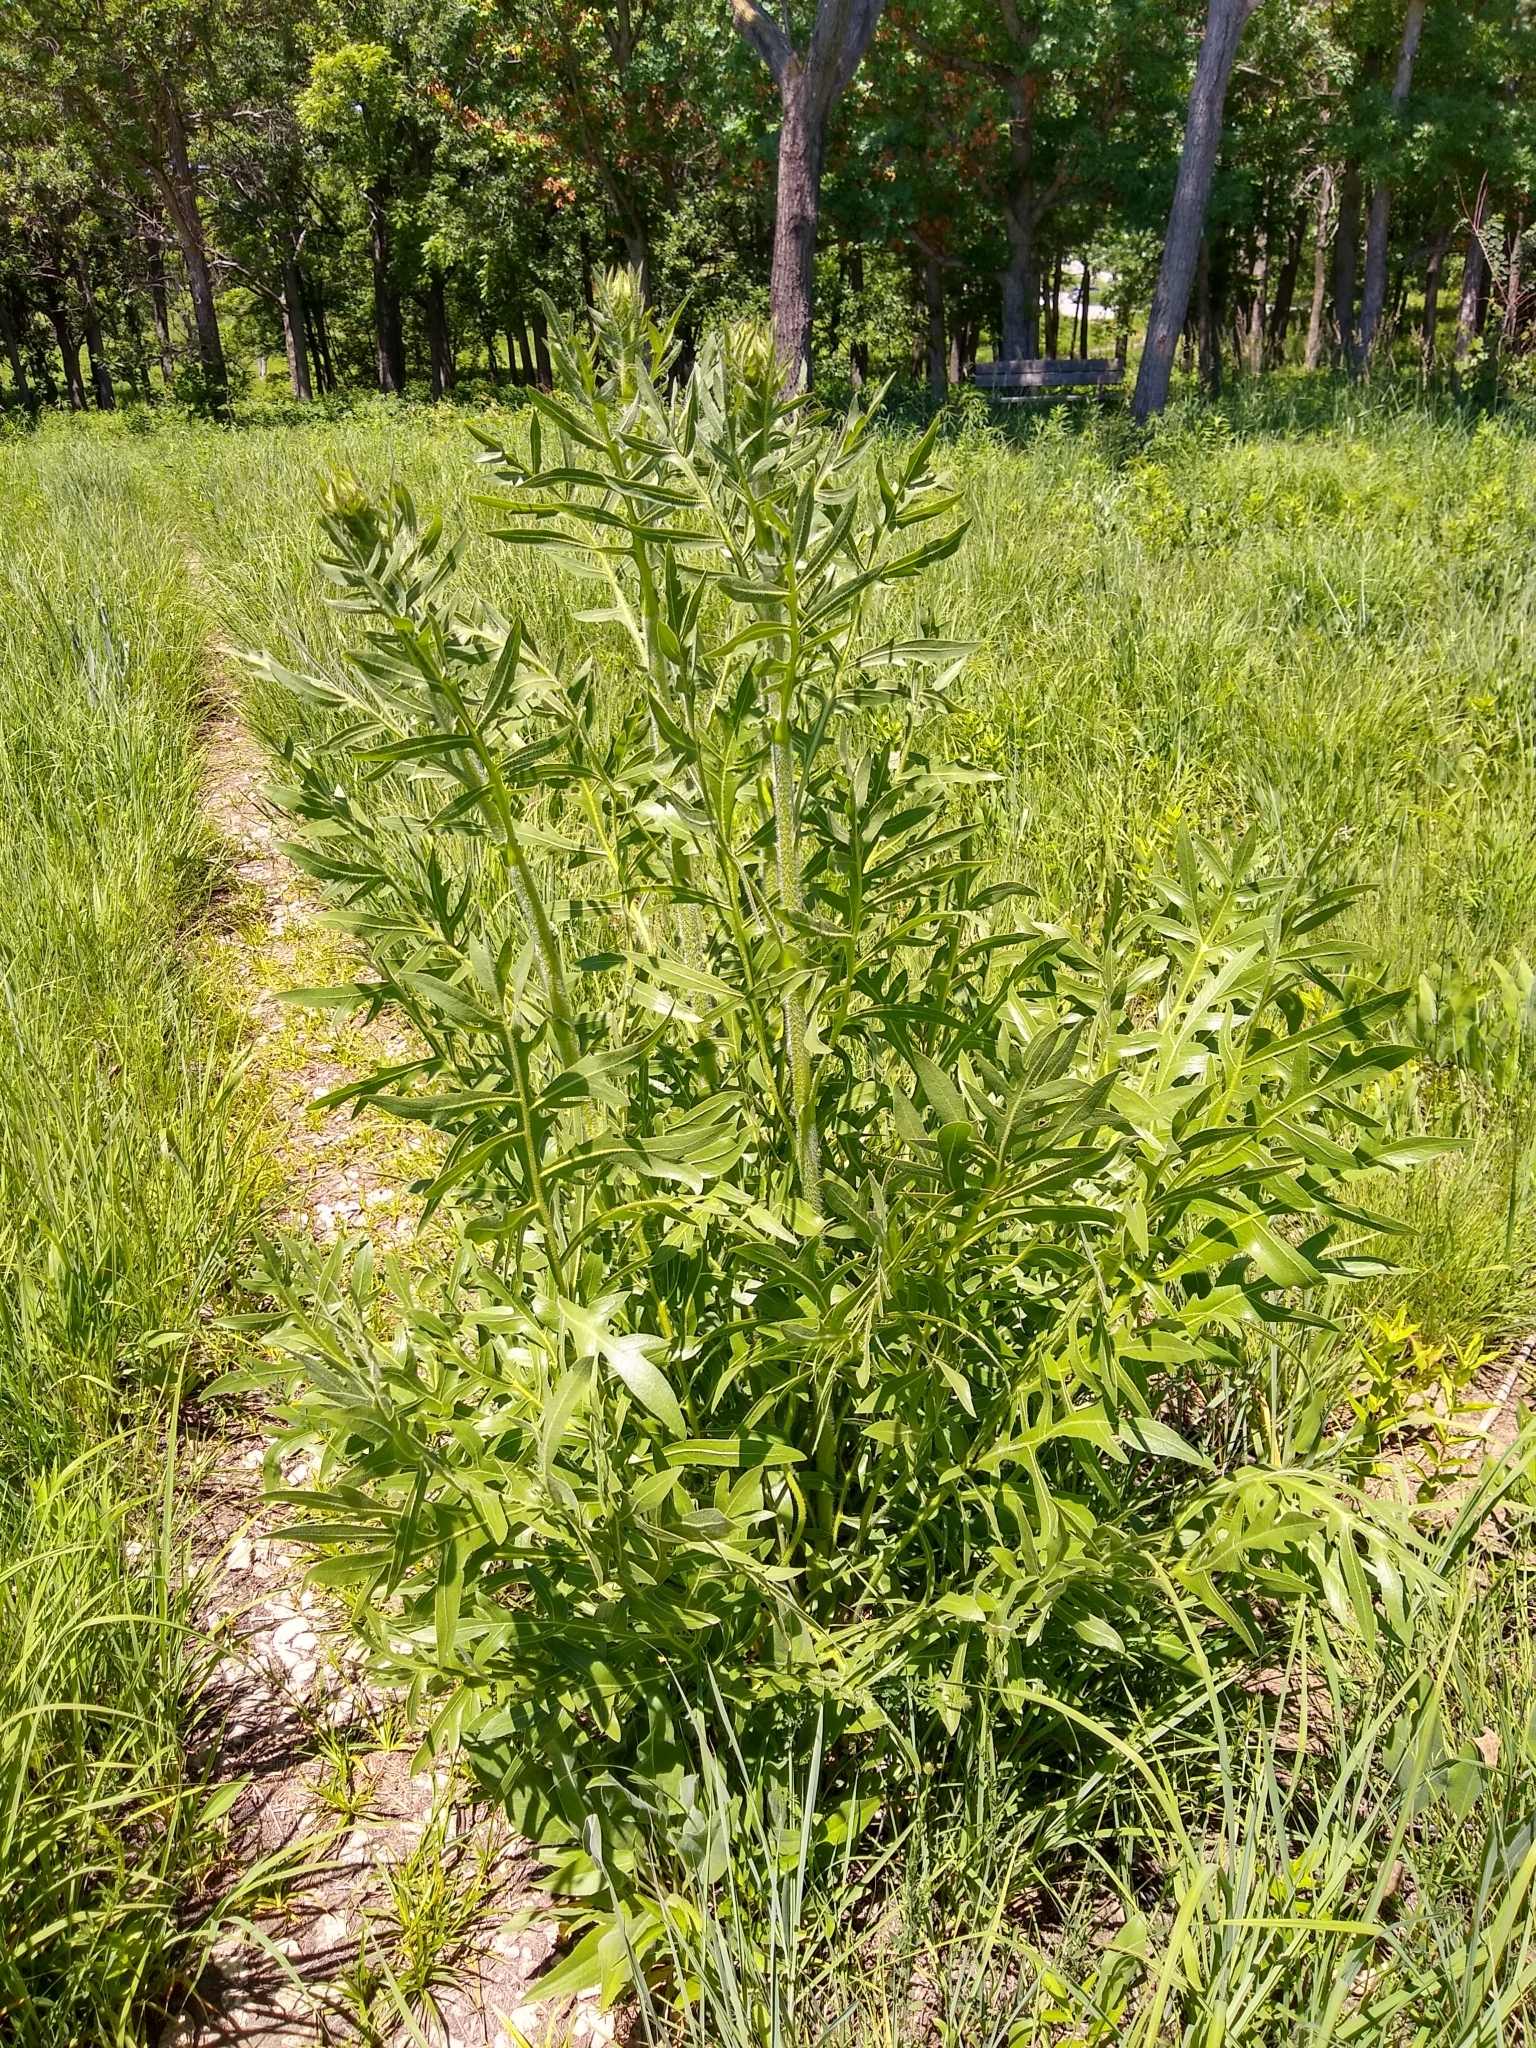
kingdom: Plantae
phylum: Tracheophyta
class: Magnoliopsida
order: Asterales
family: Asteraceae
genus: Silphium
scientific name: Silphium laciniatum
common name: Polarplant
